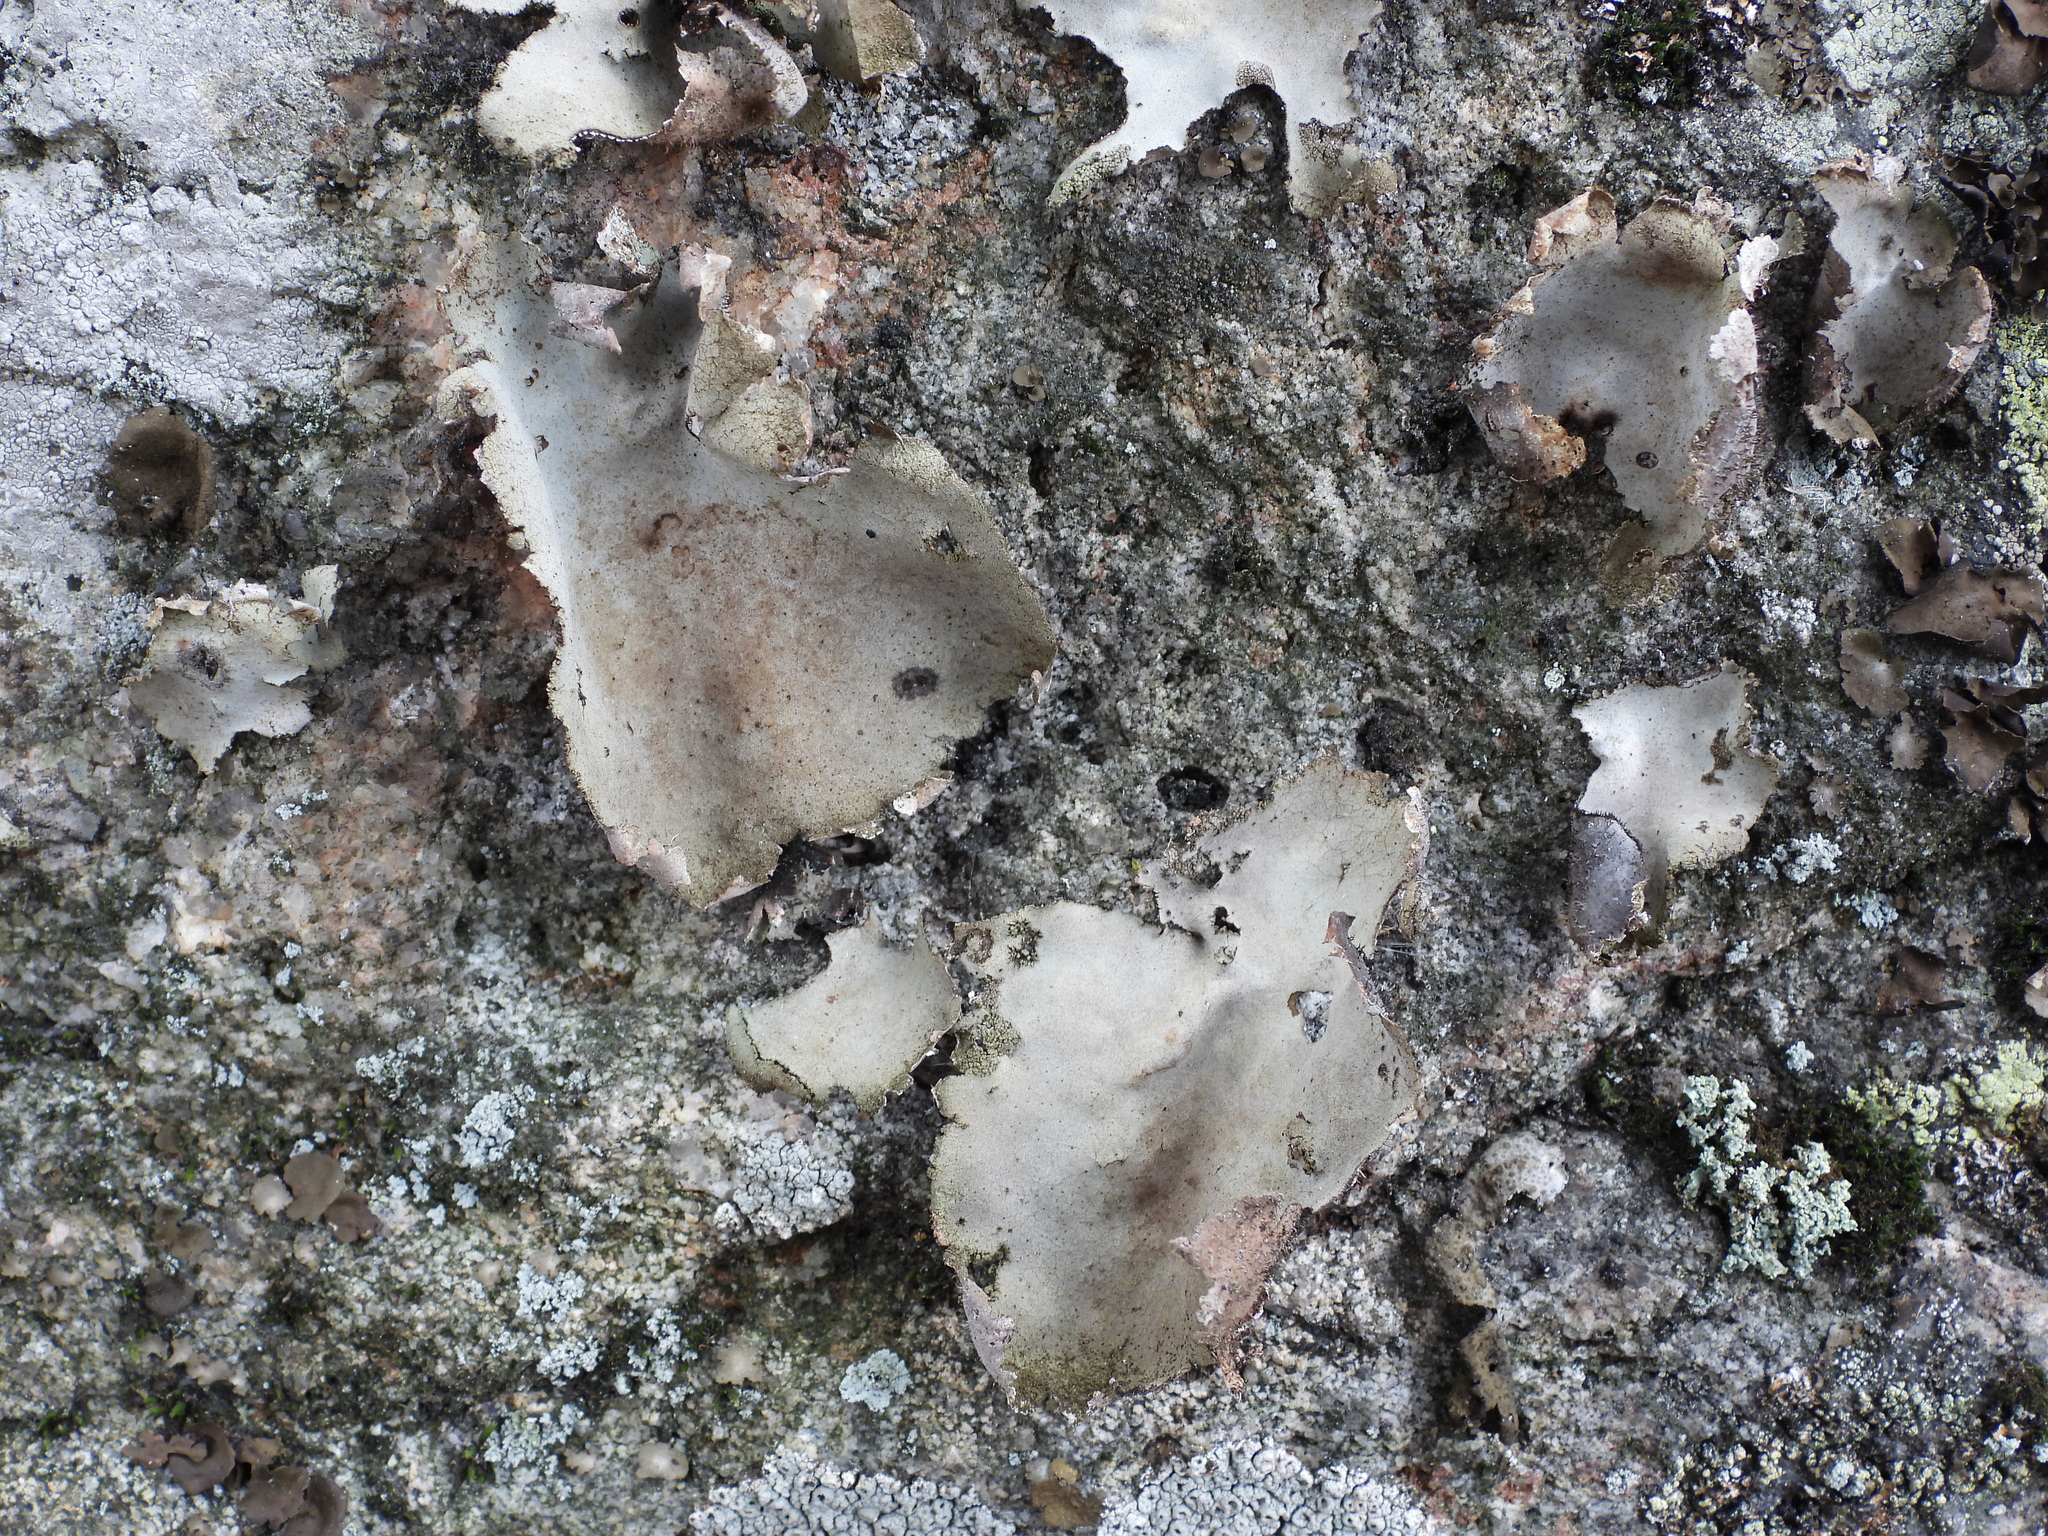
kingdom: Fungi
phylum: Ascomycota
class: Lecanoromycetes
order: Umbilicariales
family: Umbilicariaceae
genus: Umbilicaria
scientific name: Umbilicaria hirsuta
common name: Granulating rocktripe lichen
